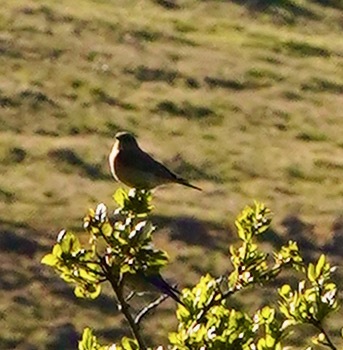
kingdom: Animalia
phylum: Chordata
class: Aves
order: Passeriformes
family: Turdidae
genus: Sialia
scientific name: Sialia mexicana
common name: Western bluebird
